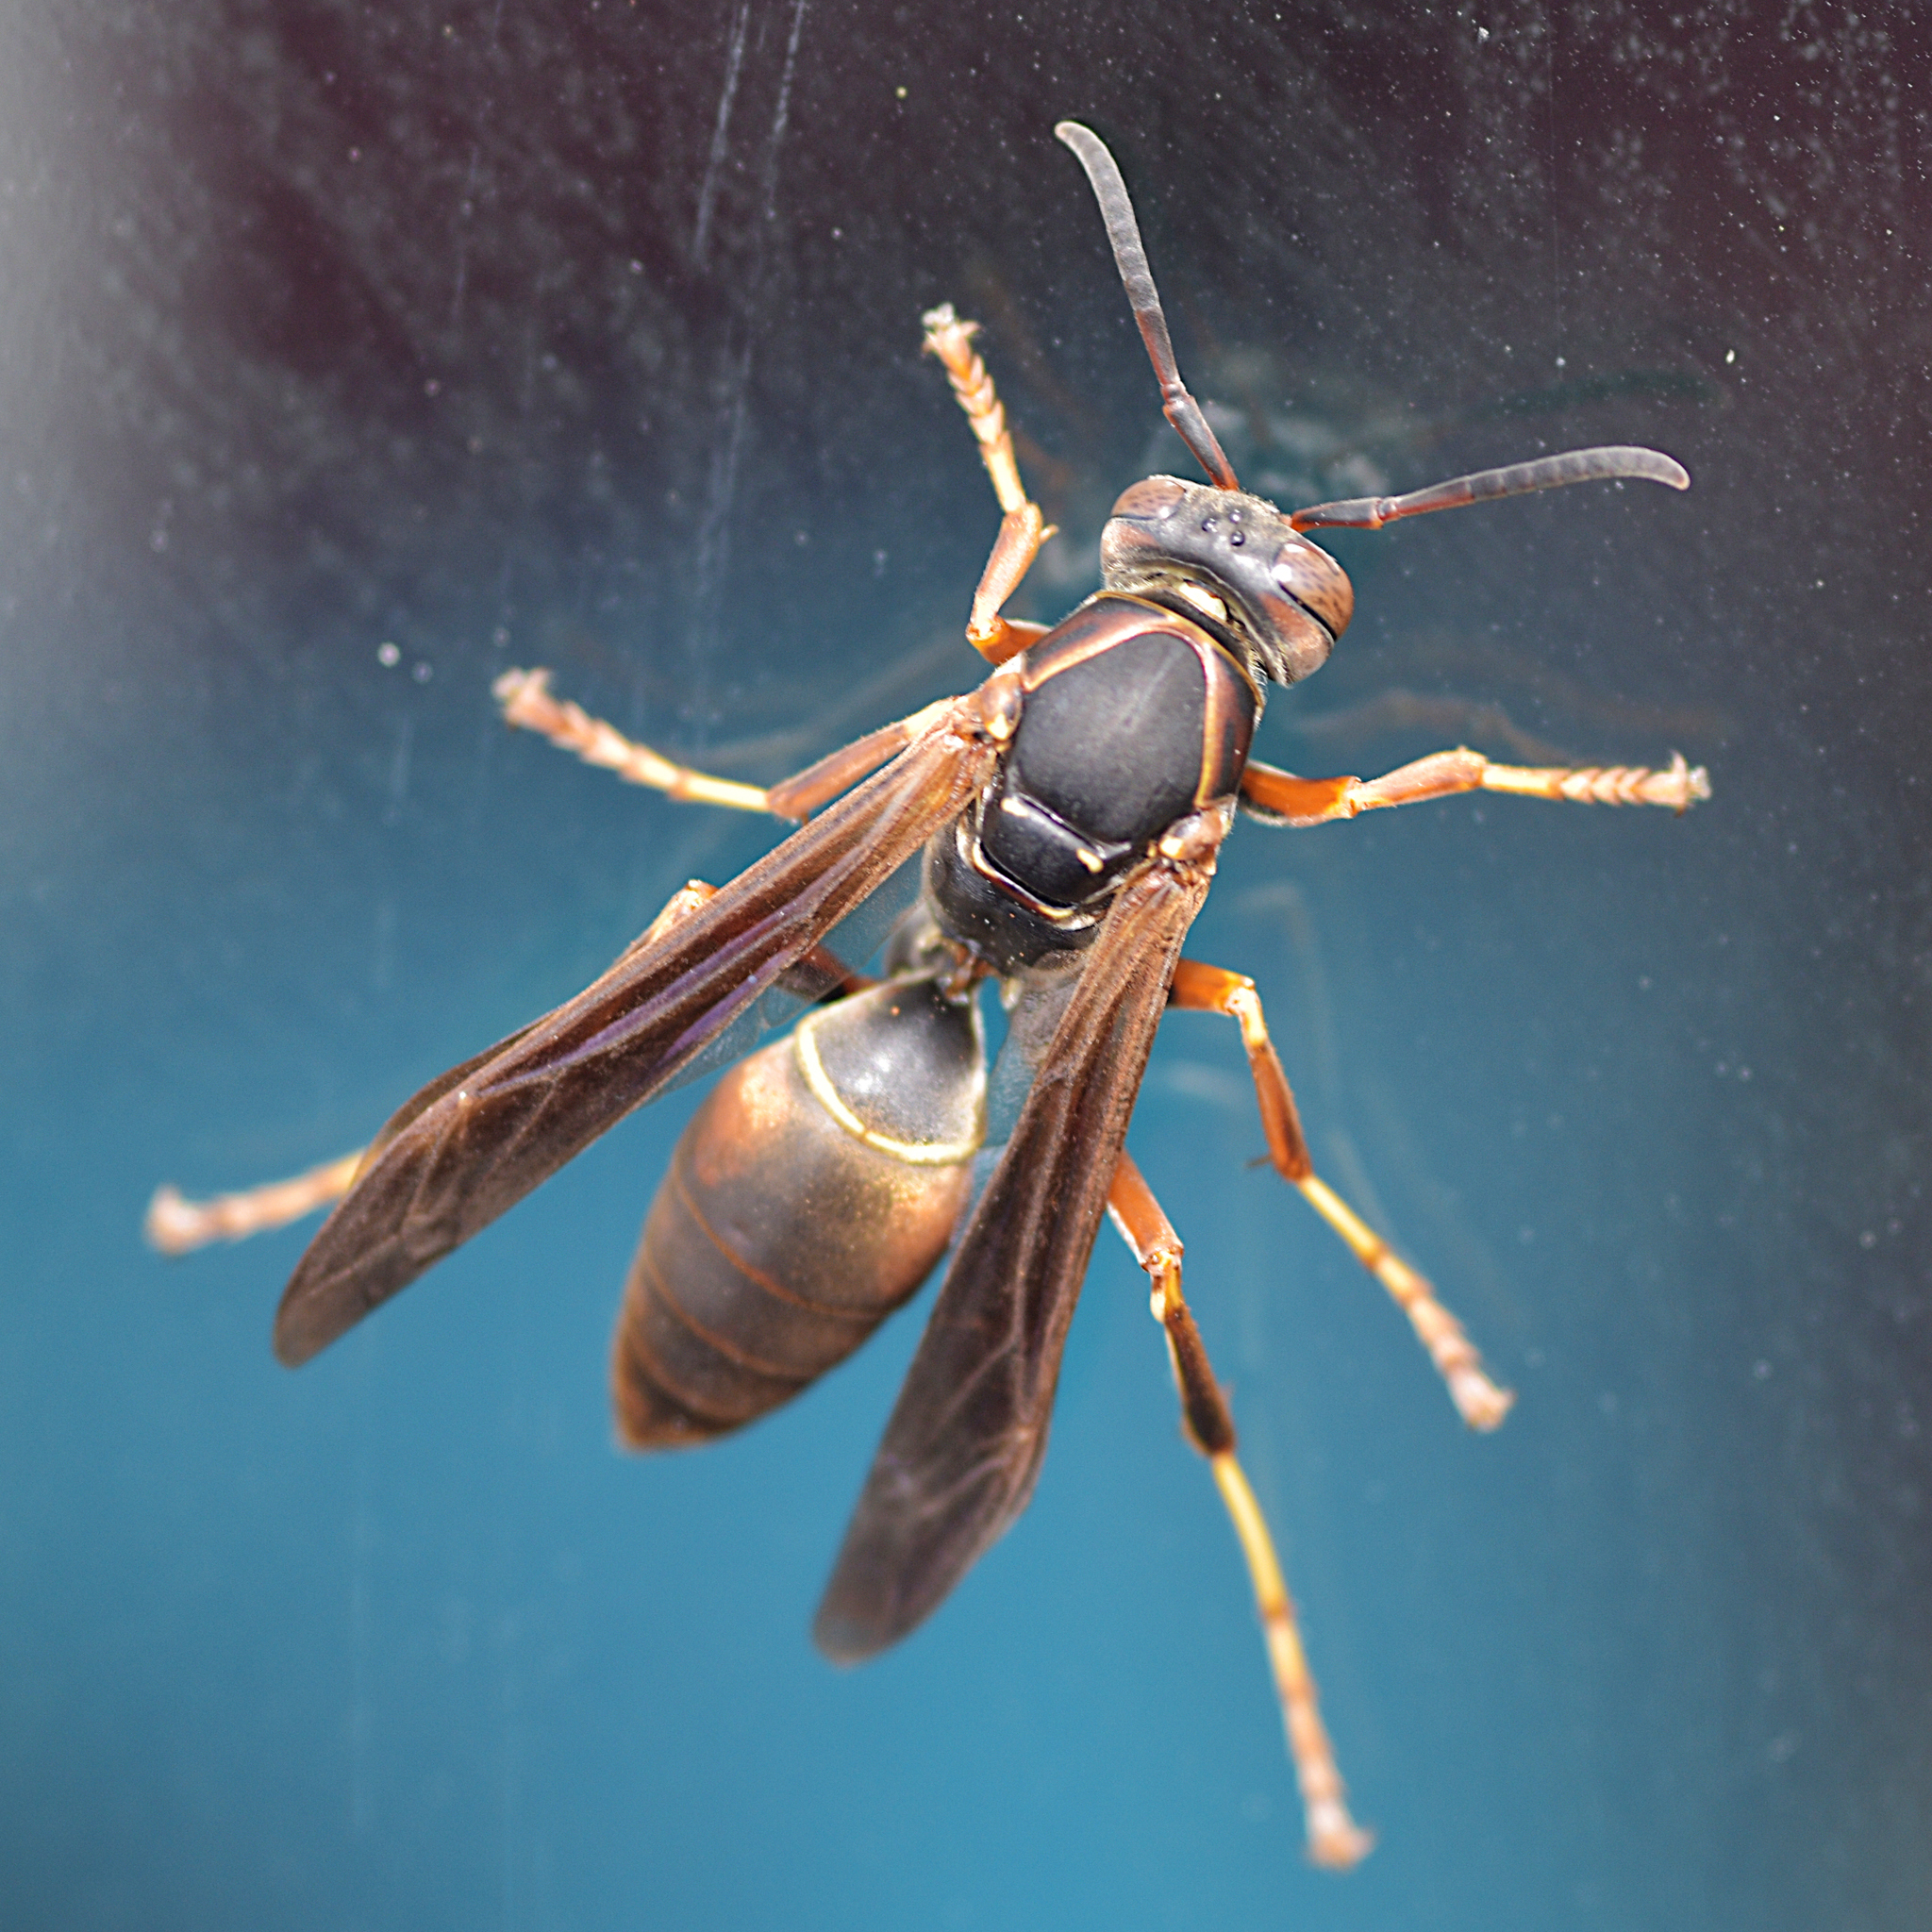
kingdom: Animalia
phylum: Arthropoda
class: Insecta
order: Hymenoptera
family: Eumenidae
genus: Polistes
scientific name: Polistes fuscatus
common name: Dark paper wasp
